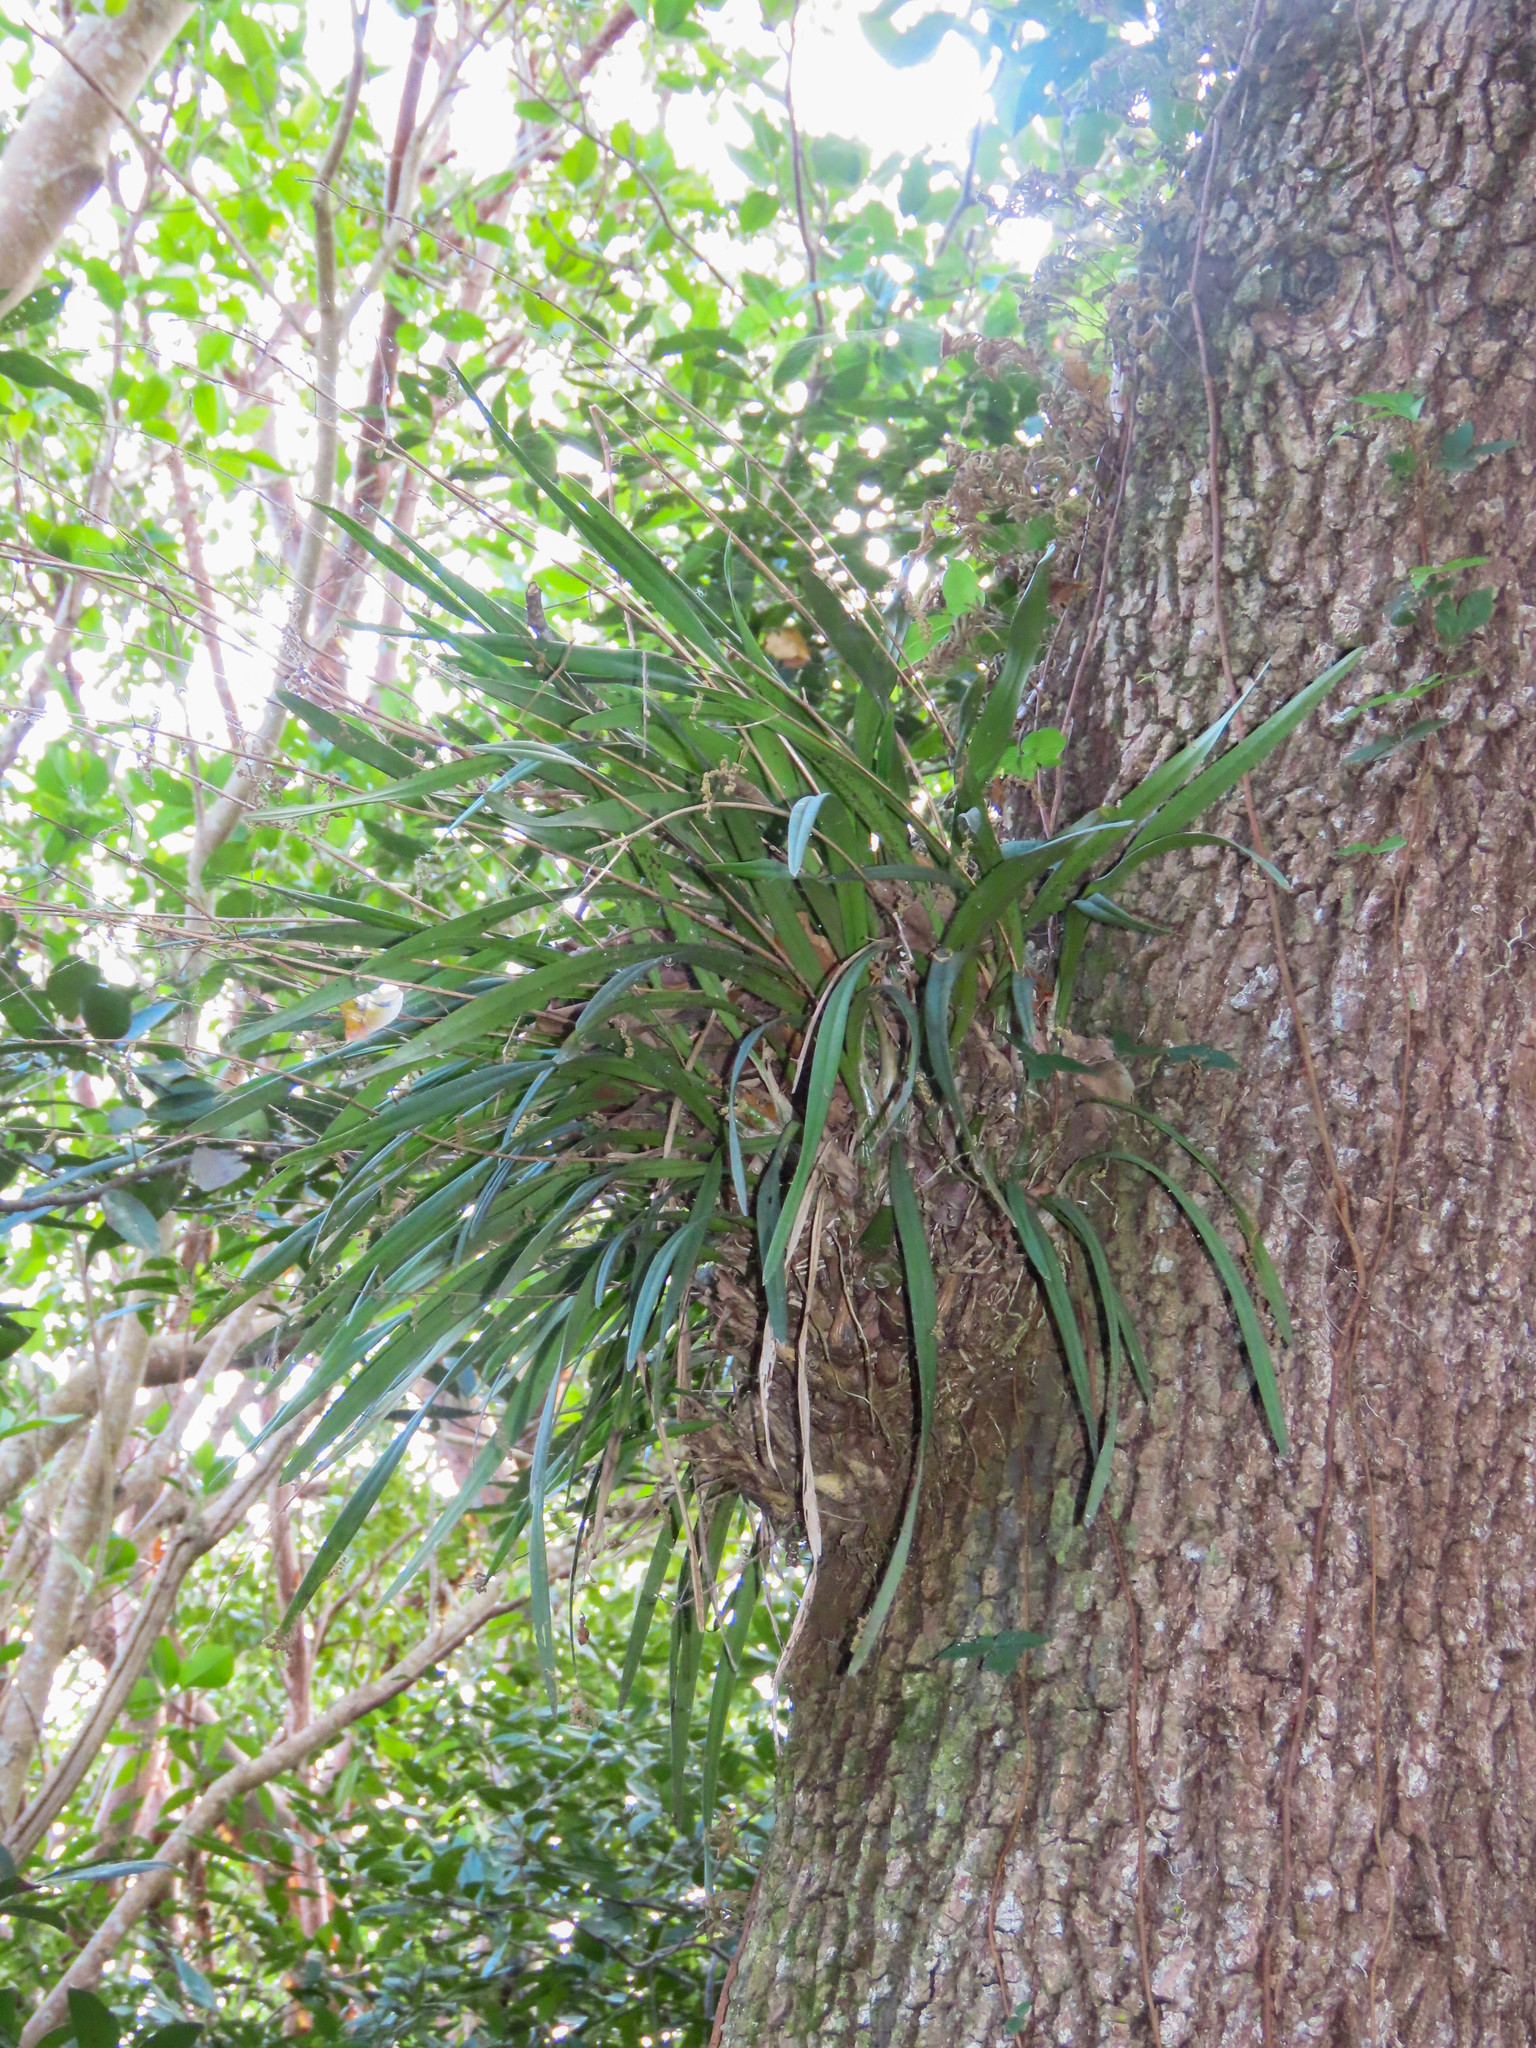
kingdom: Plantae
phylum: Tracheophyta
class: Liliopsida
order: Asparagales
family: Orchidaceae
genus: Encyclia
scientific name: Encyclia tampensis
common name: Florida butterfly orchid
